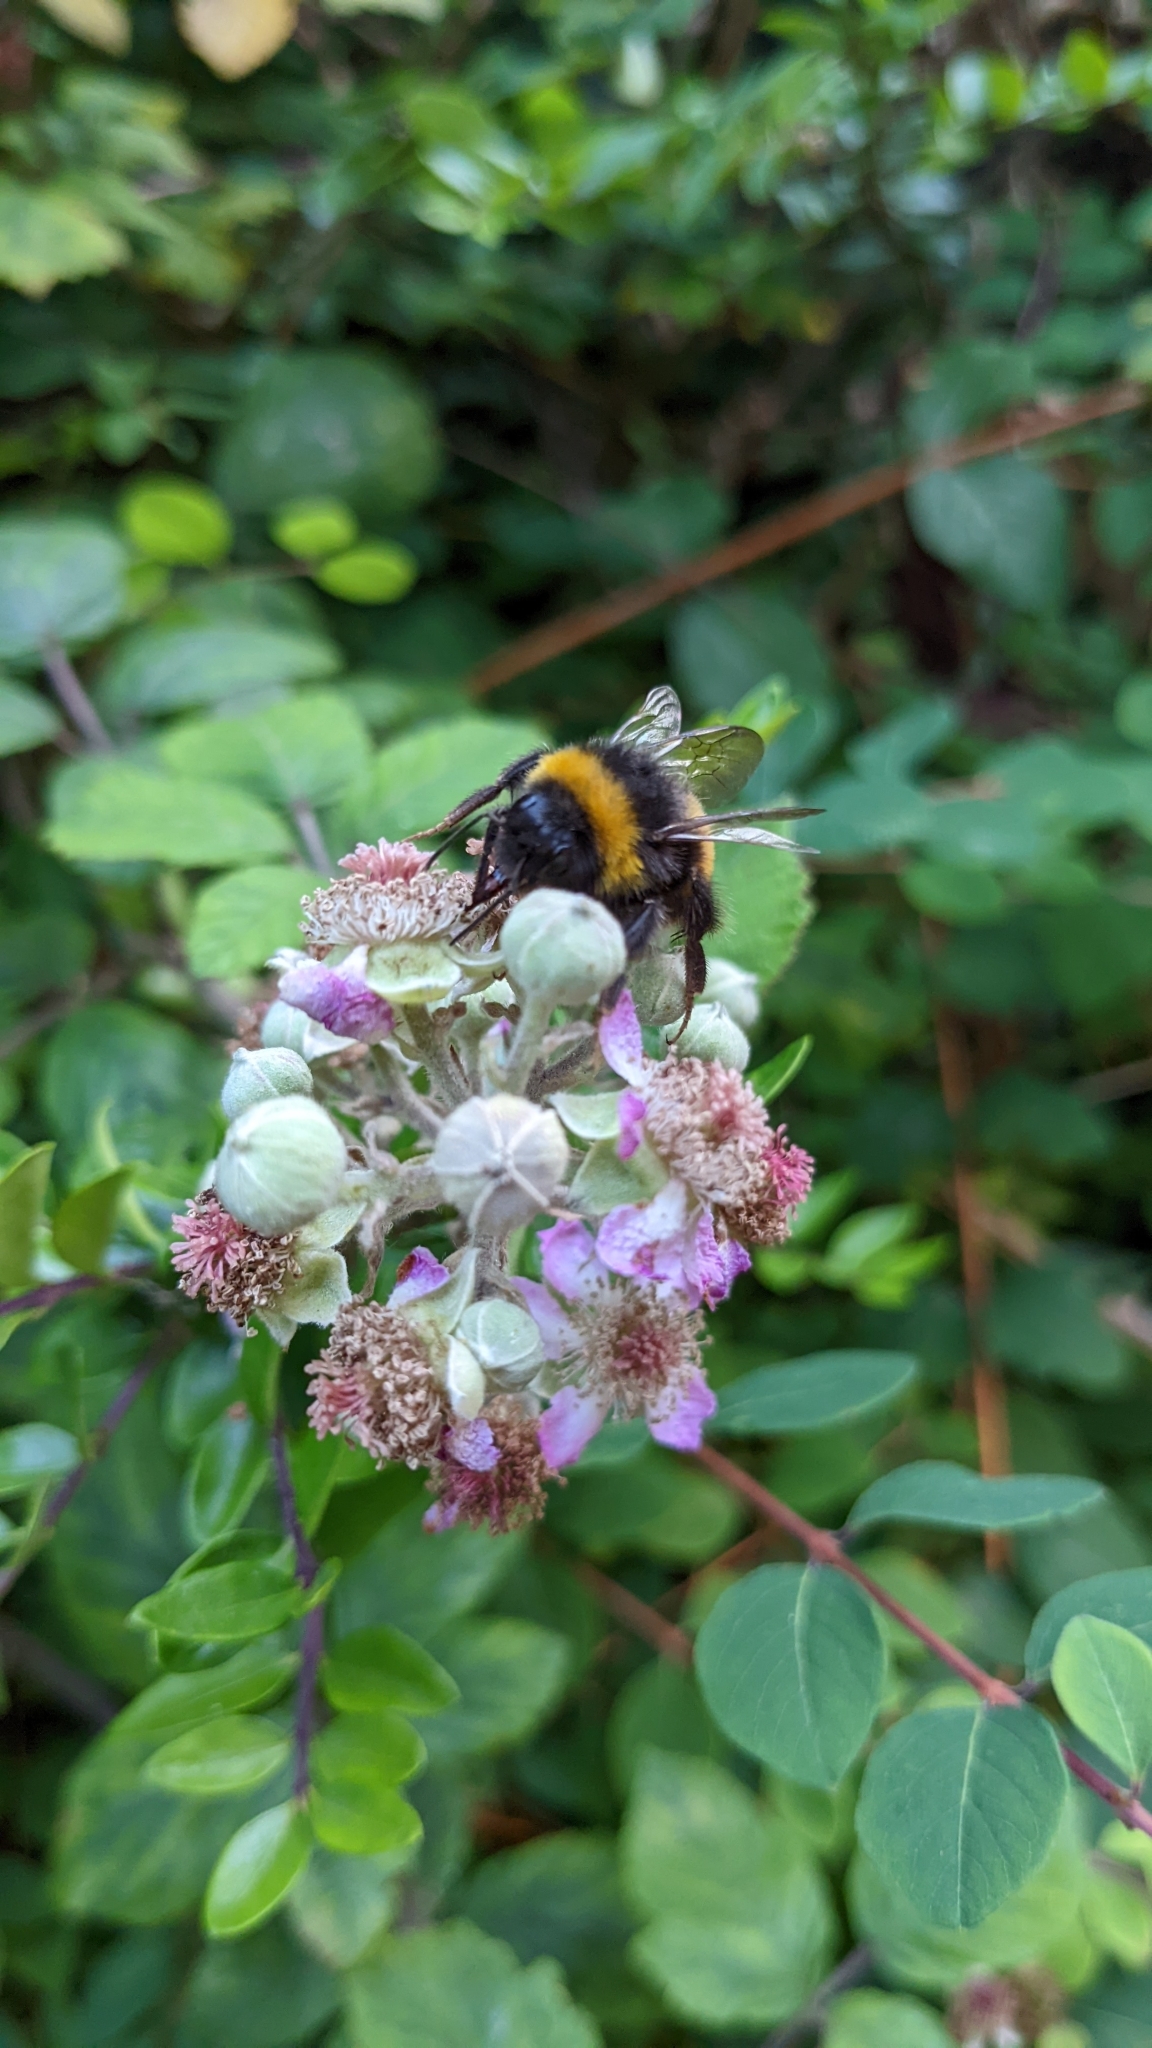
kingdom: Animalia
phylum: Arthropoda
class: Insecta
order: Hymenoptera
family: Apidae
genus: Bombus
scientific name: Bombus terrestris
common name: Buff-tailed bumblebee
